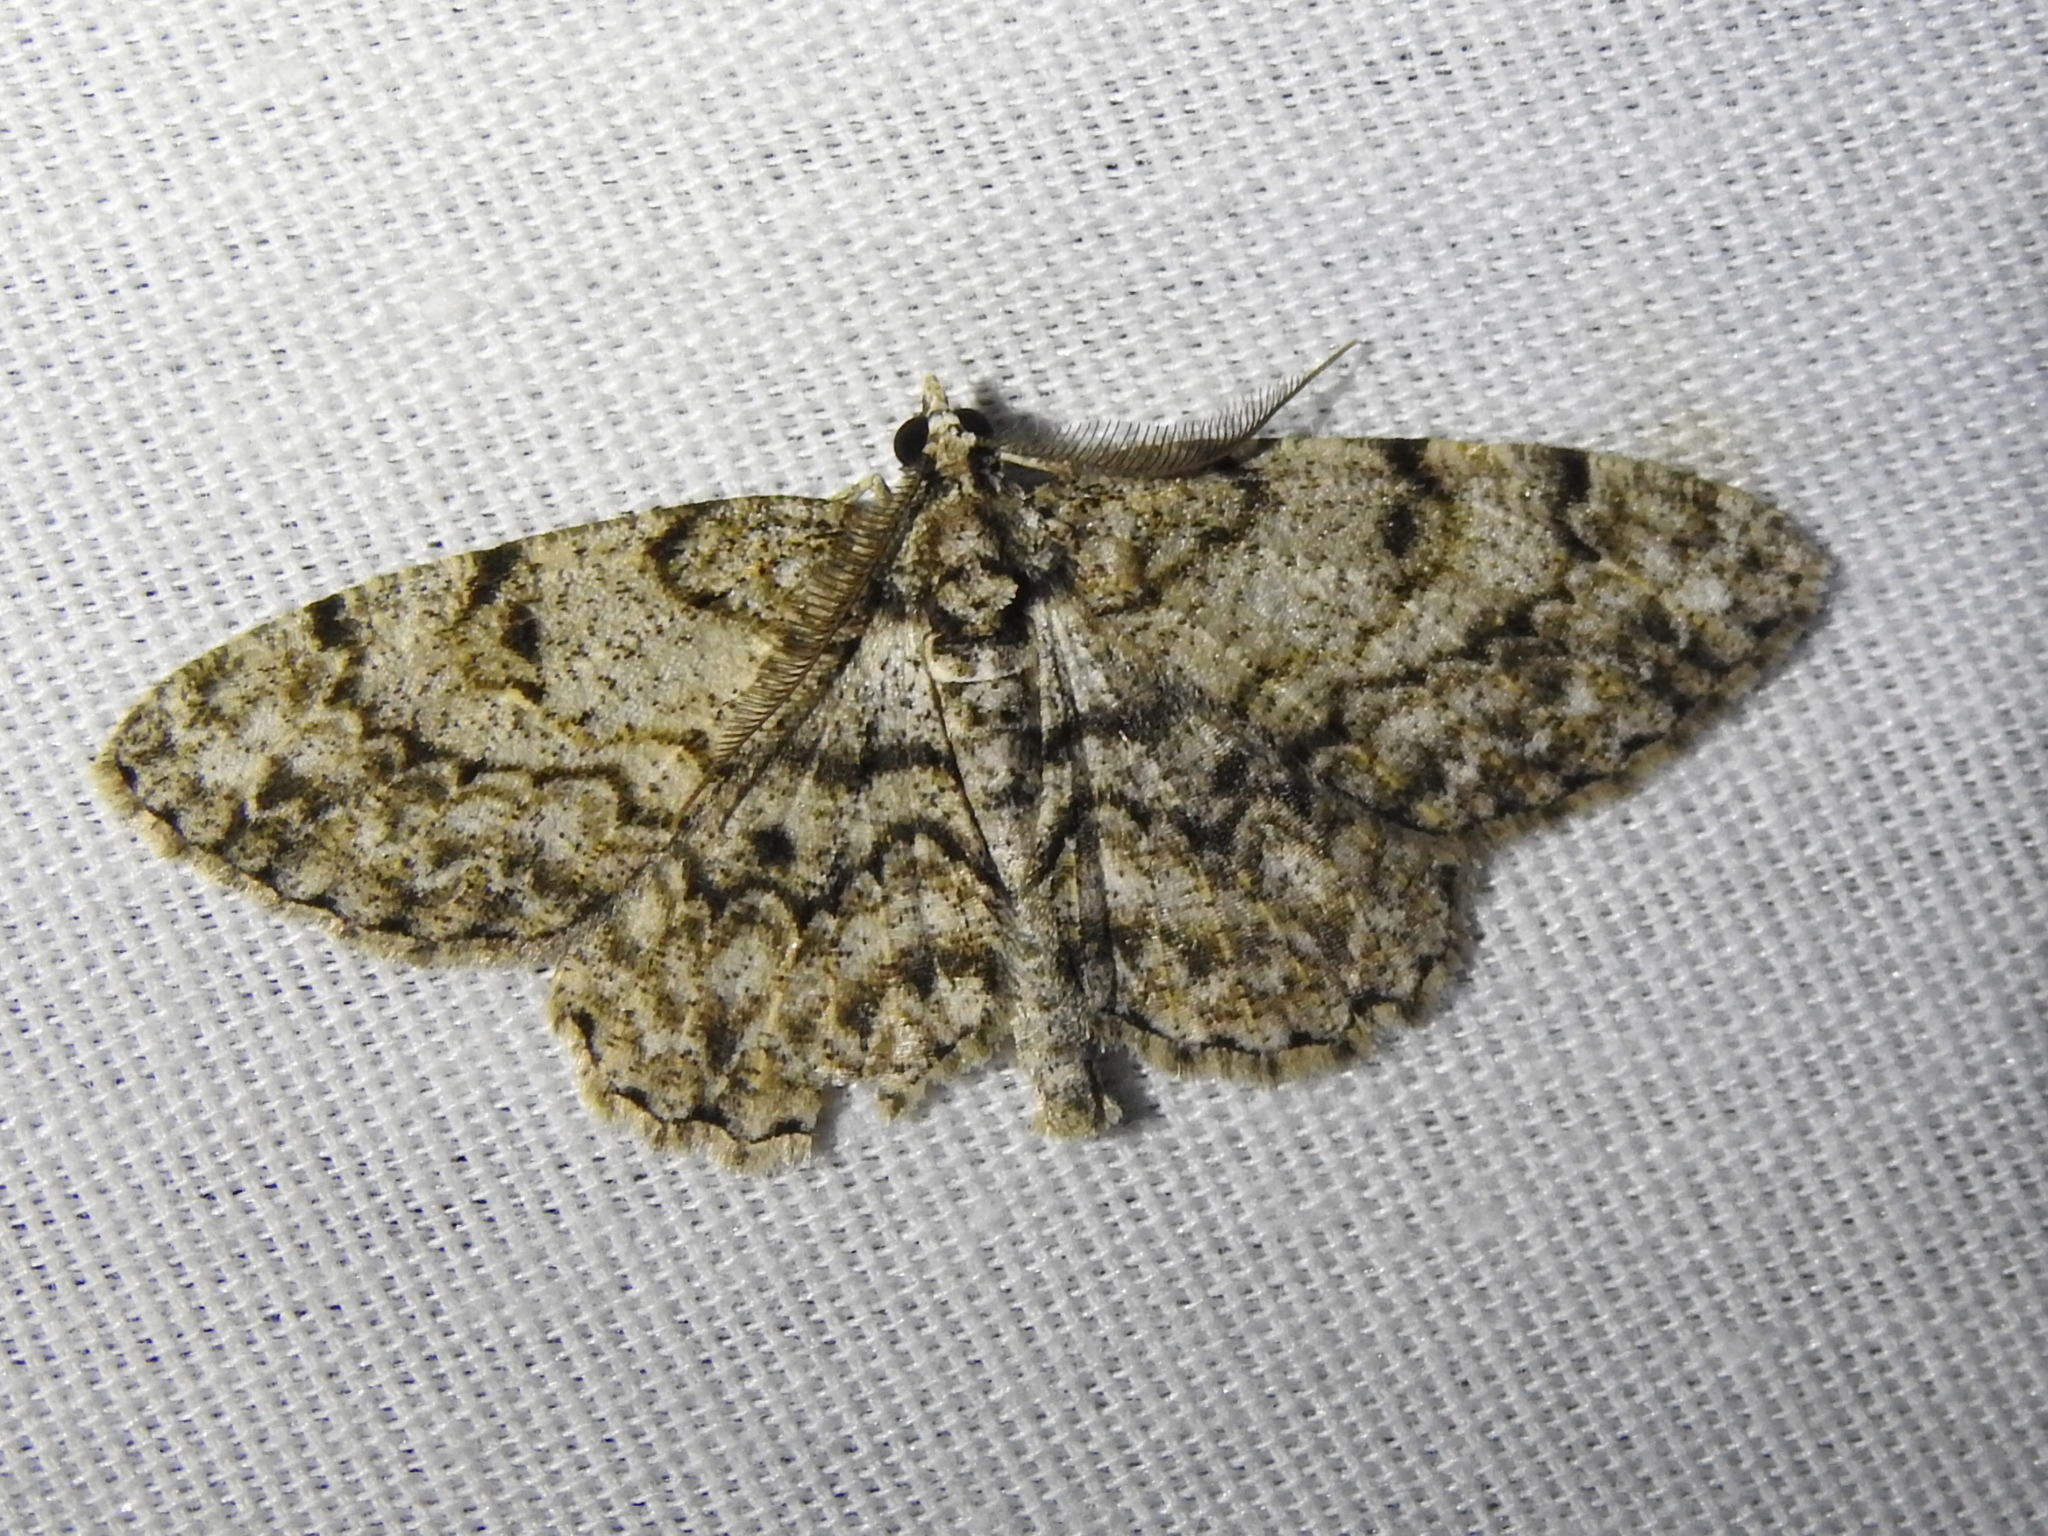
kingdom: Animalia
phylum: Arthropoda
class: Insecta
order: Lepidoptera
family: Geometridae
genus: Protoboarmia
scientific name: Protoboarmia porcelaria
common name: Porcelain gray
